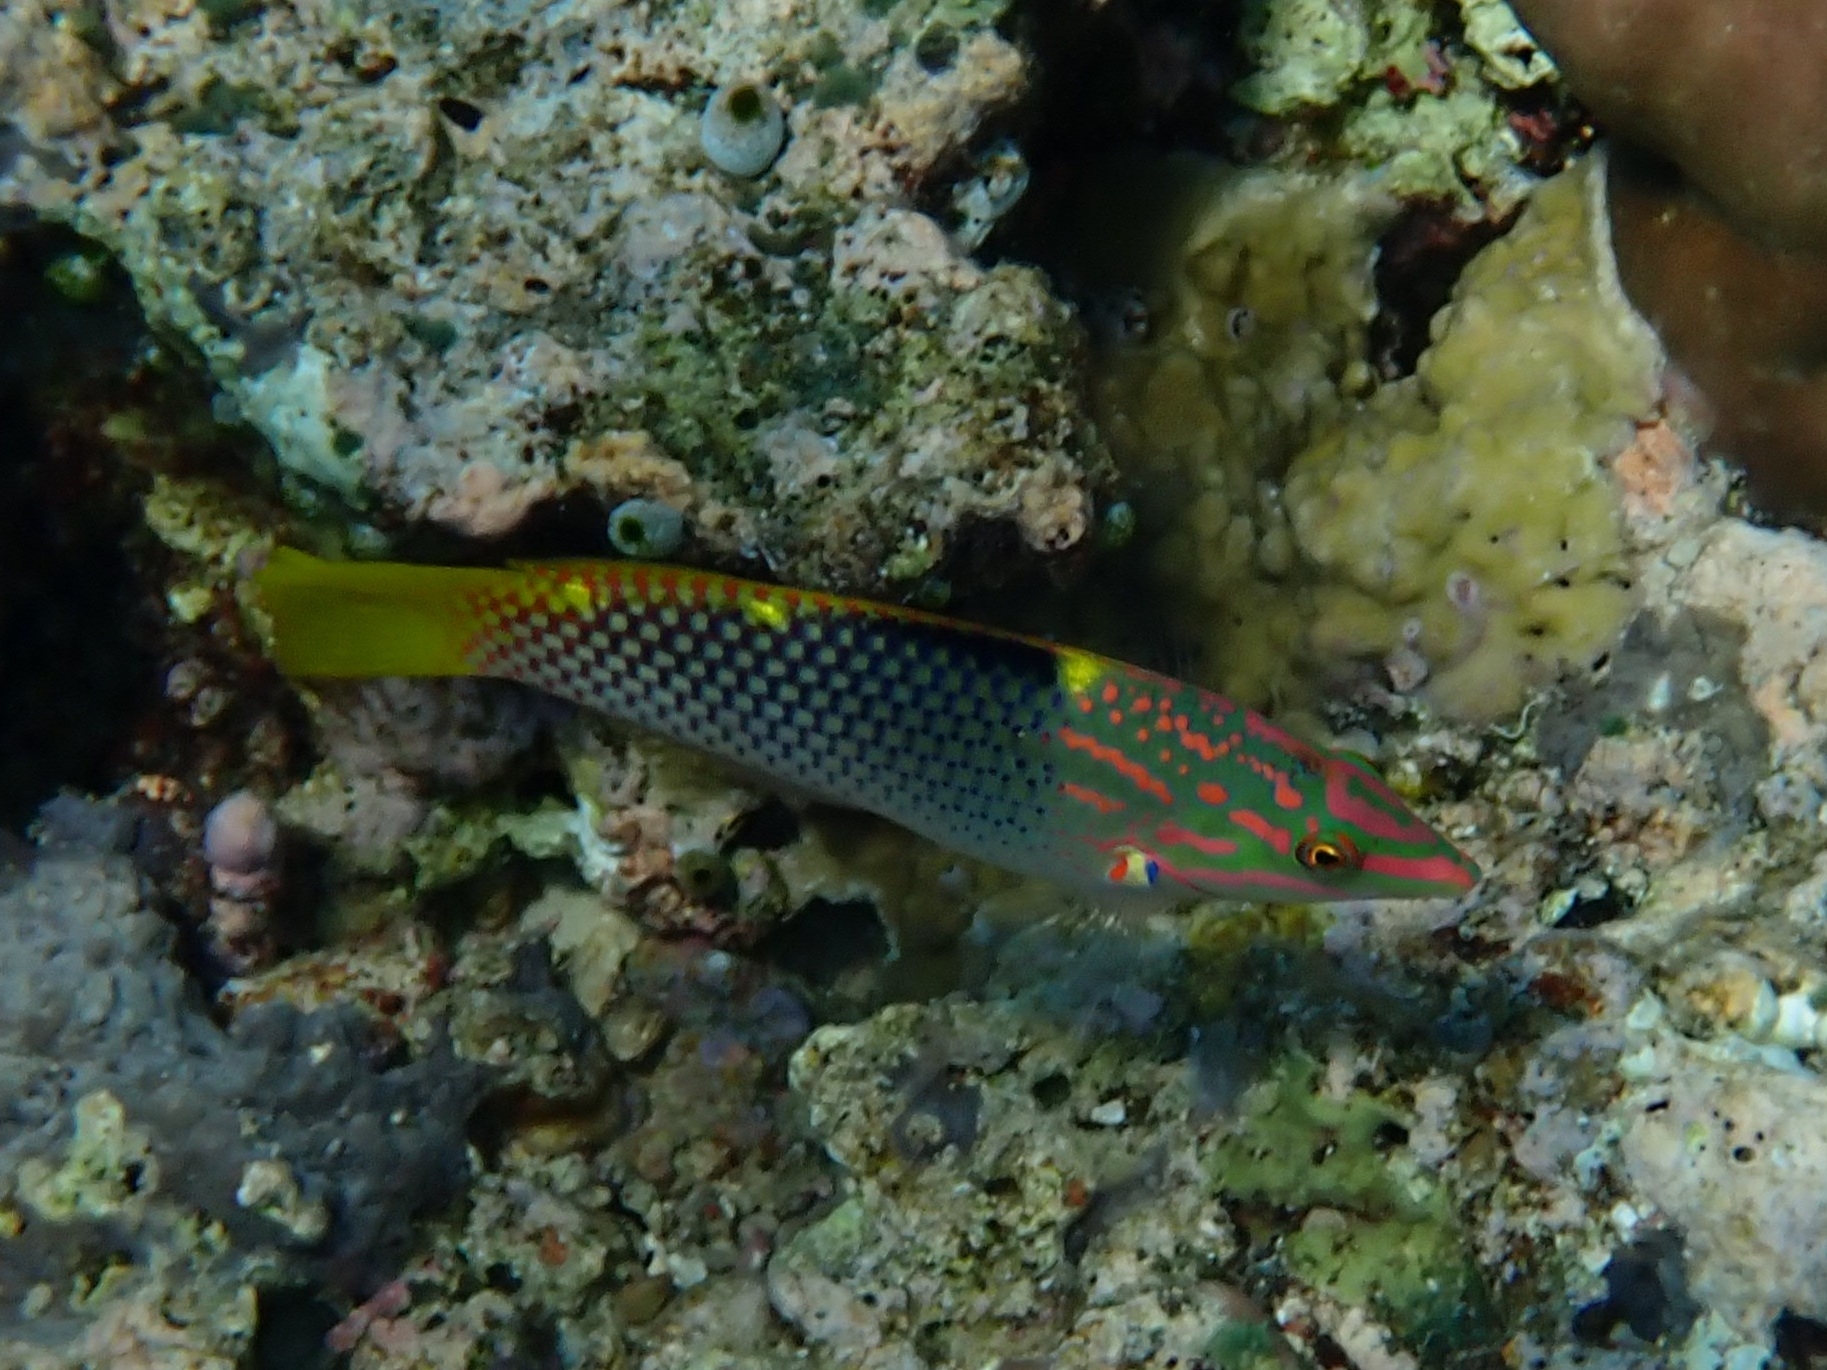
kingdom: Animalia
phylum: Chordata
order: Perciformes
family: Labridae
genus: Halichoeres
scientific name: Halichoeres hortulanus
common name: Checkerboard wrasse
